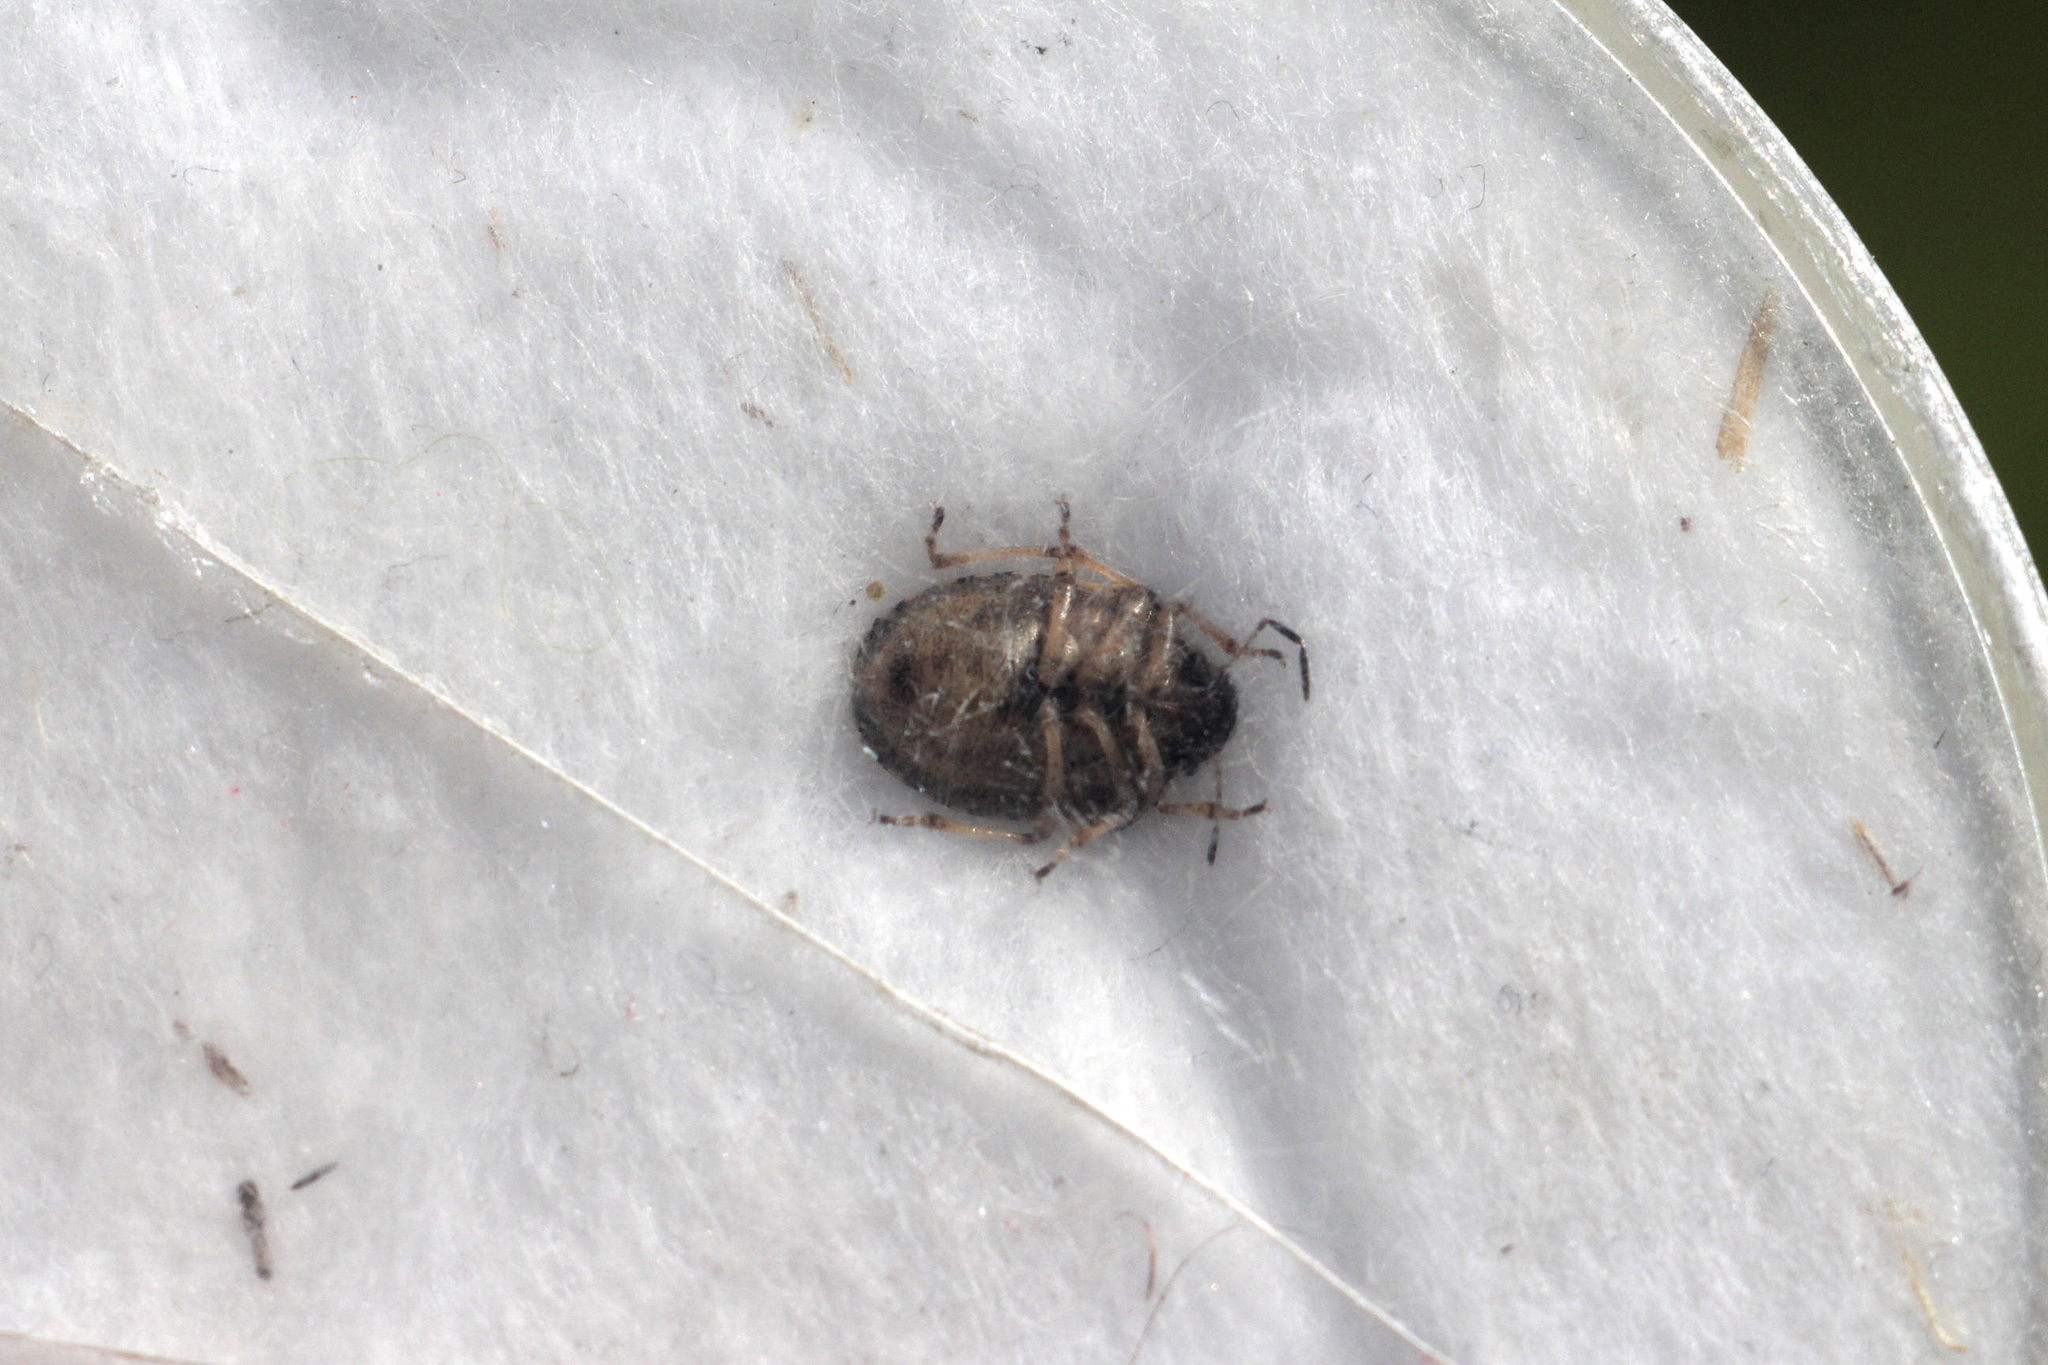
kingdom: Animalia
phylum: Arthropoda
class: Insecta
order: Hemiptera
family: Pentatomidae
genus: Rubiconia
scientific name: Rubiconia intermedia
